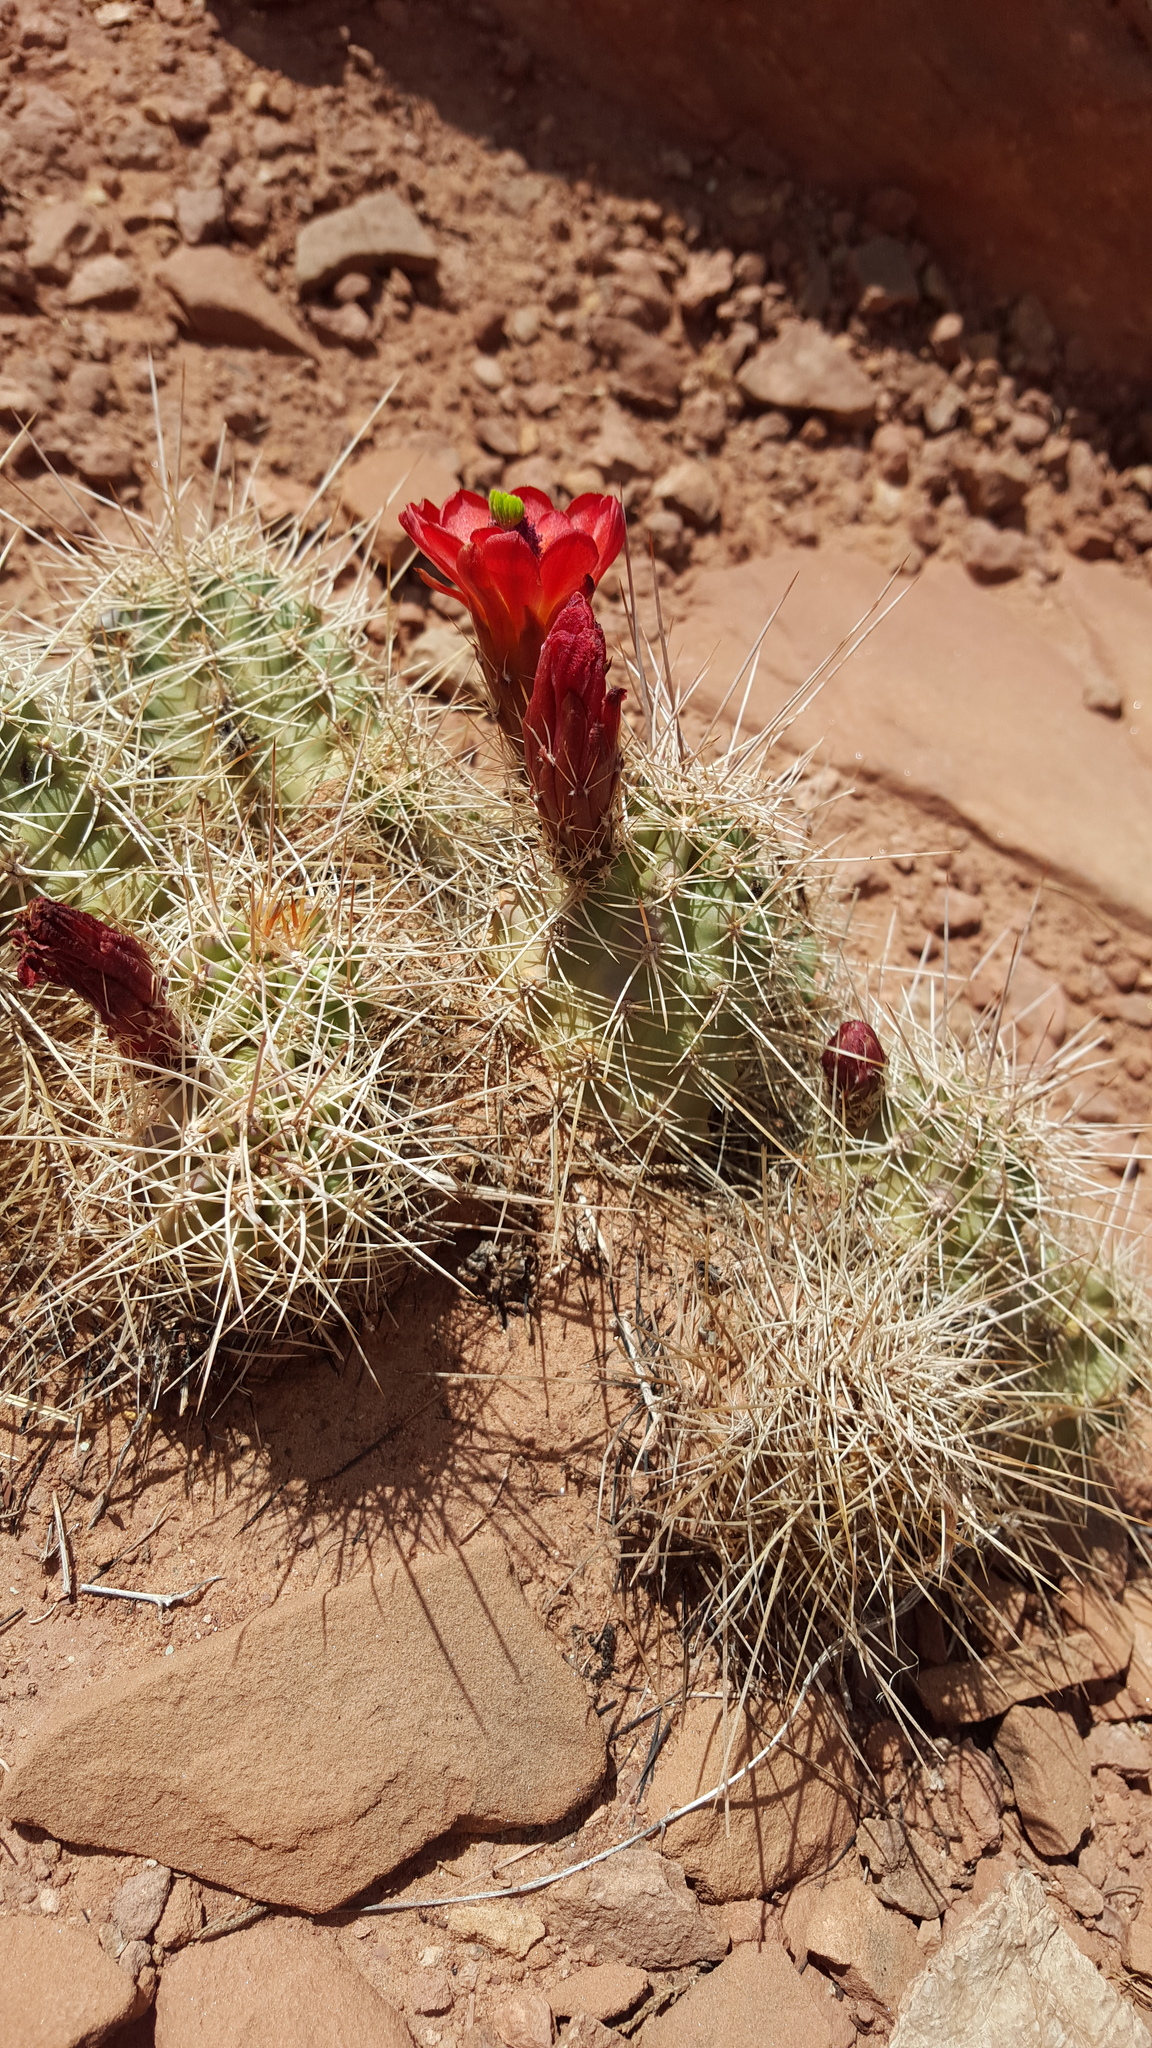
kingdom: Plantae
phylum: Tracheophyta
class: Magnoliopsida
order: Caryophyllales
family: Cactaceae
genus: Echinocereus
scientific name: Echinocereus triglochidiatus
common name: Claretcup hedgehog
